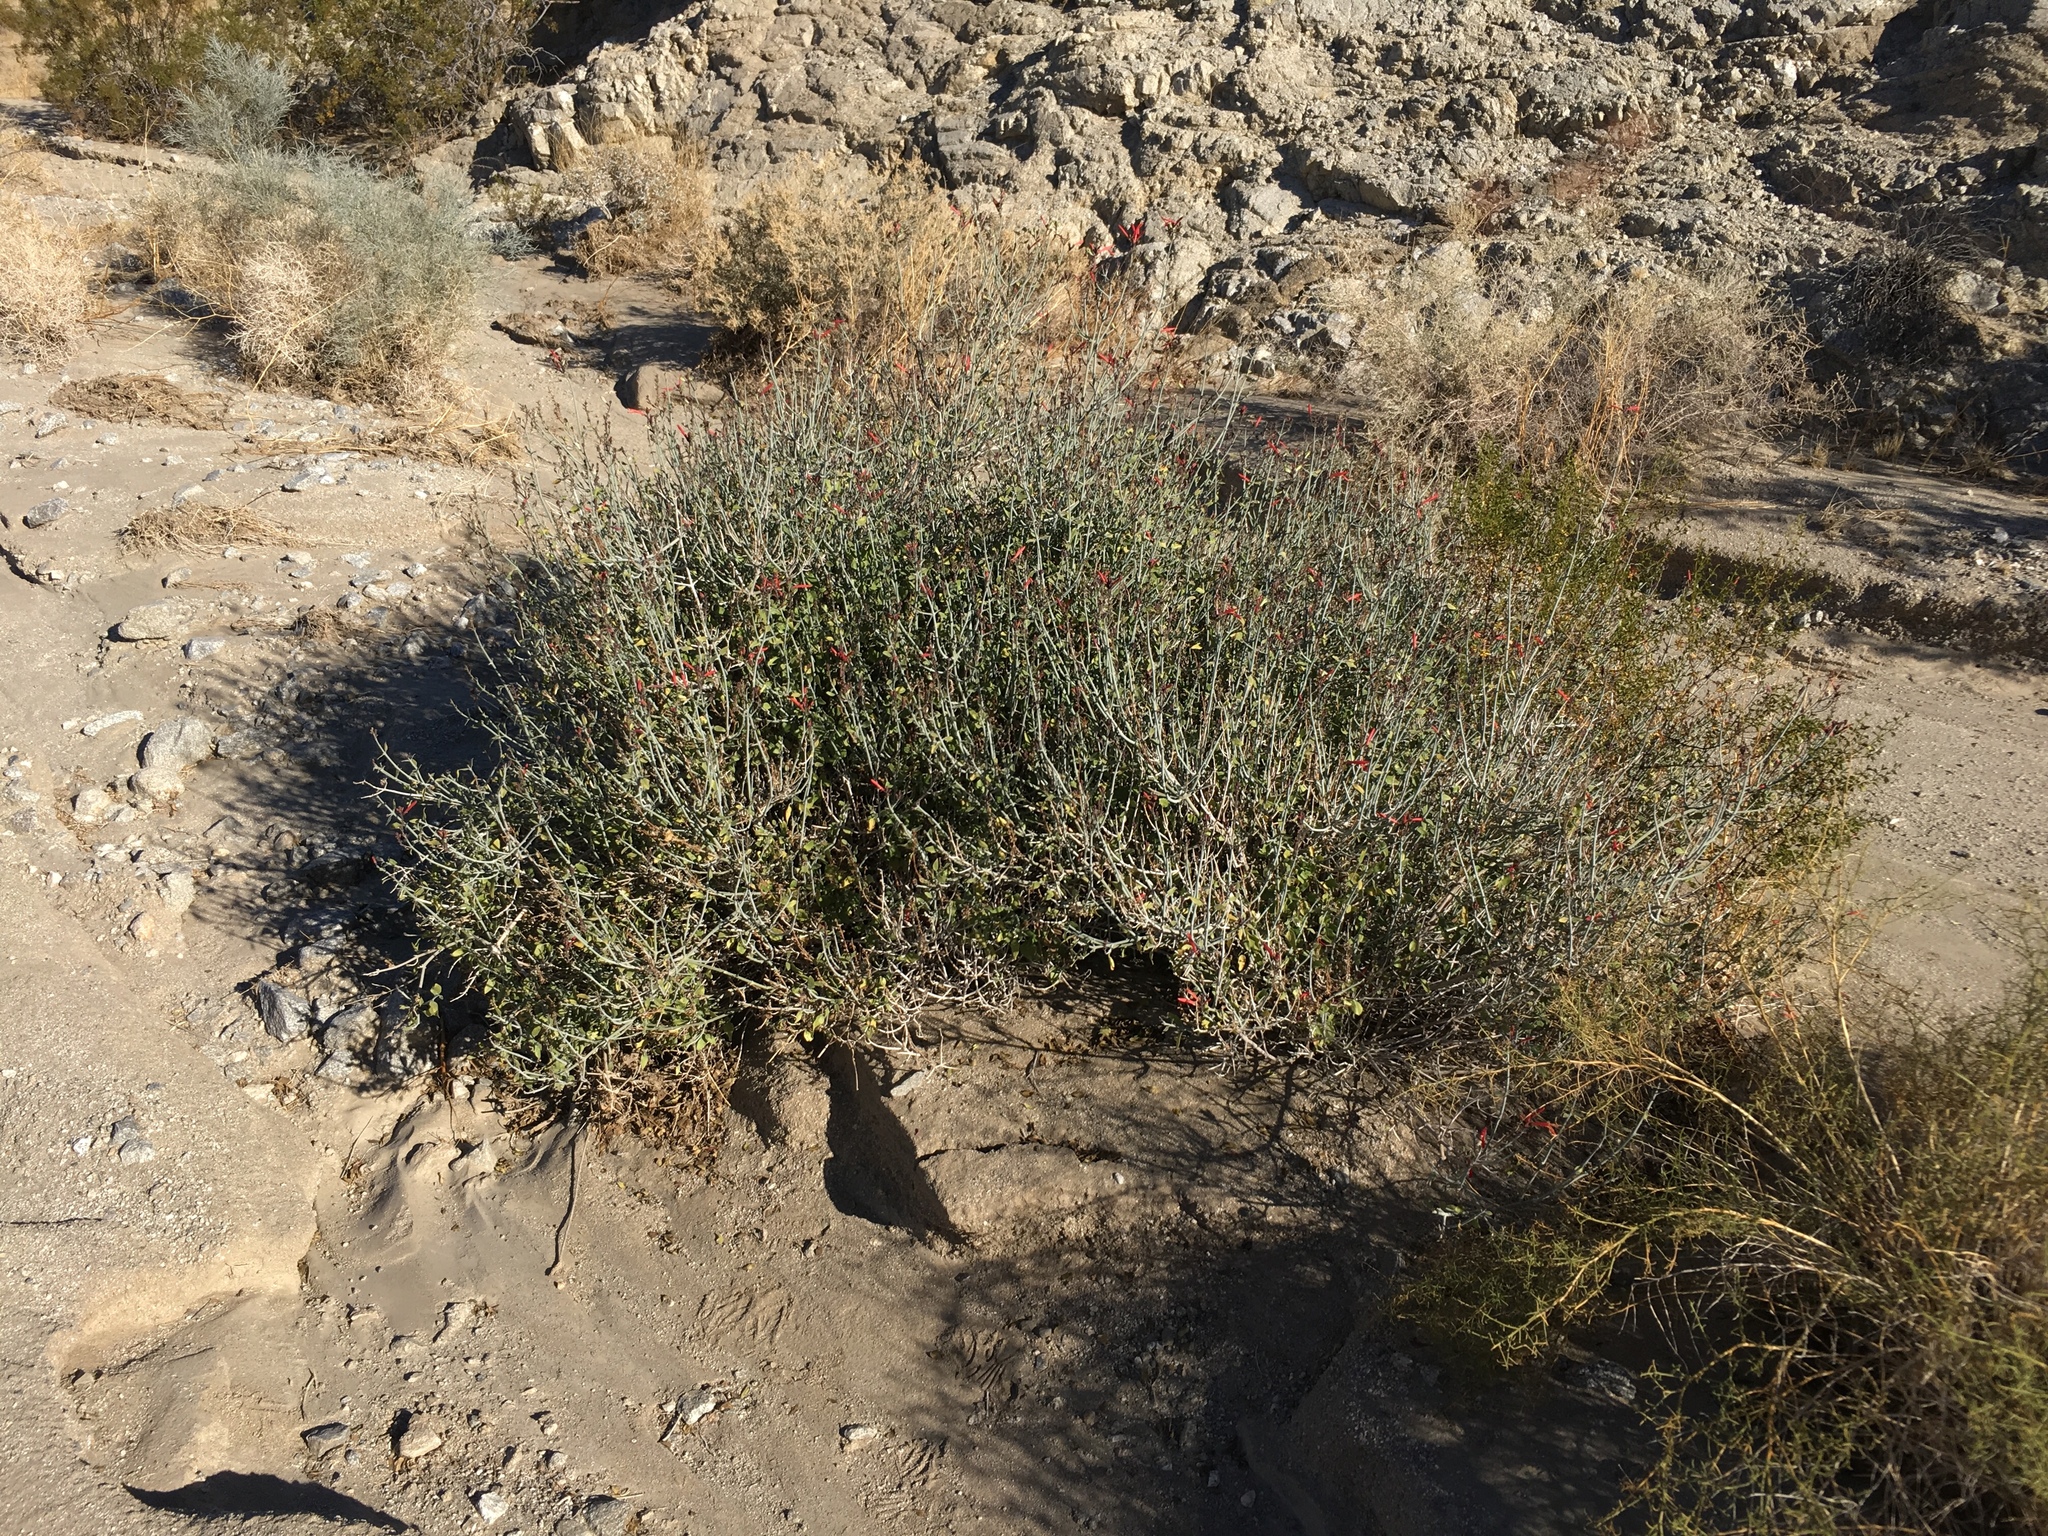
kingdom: Plantae
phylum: Tracheophyta
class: Magnoliopsida
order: Lamiales
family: Acanthaceae
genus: Justicia
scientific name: Justicia californica
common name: Chuparosa-honeysuckle
